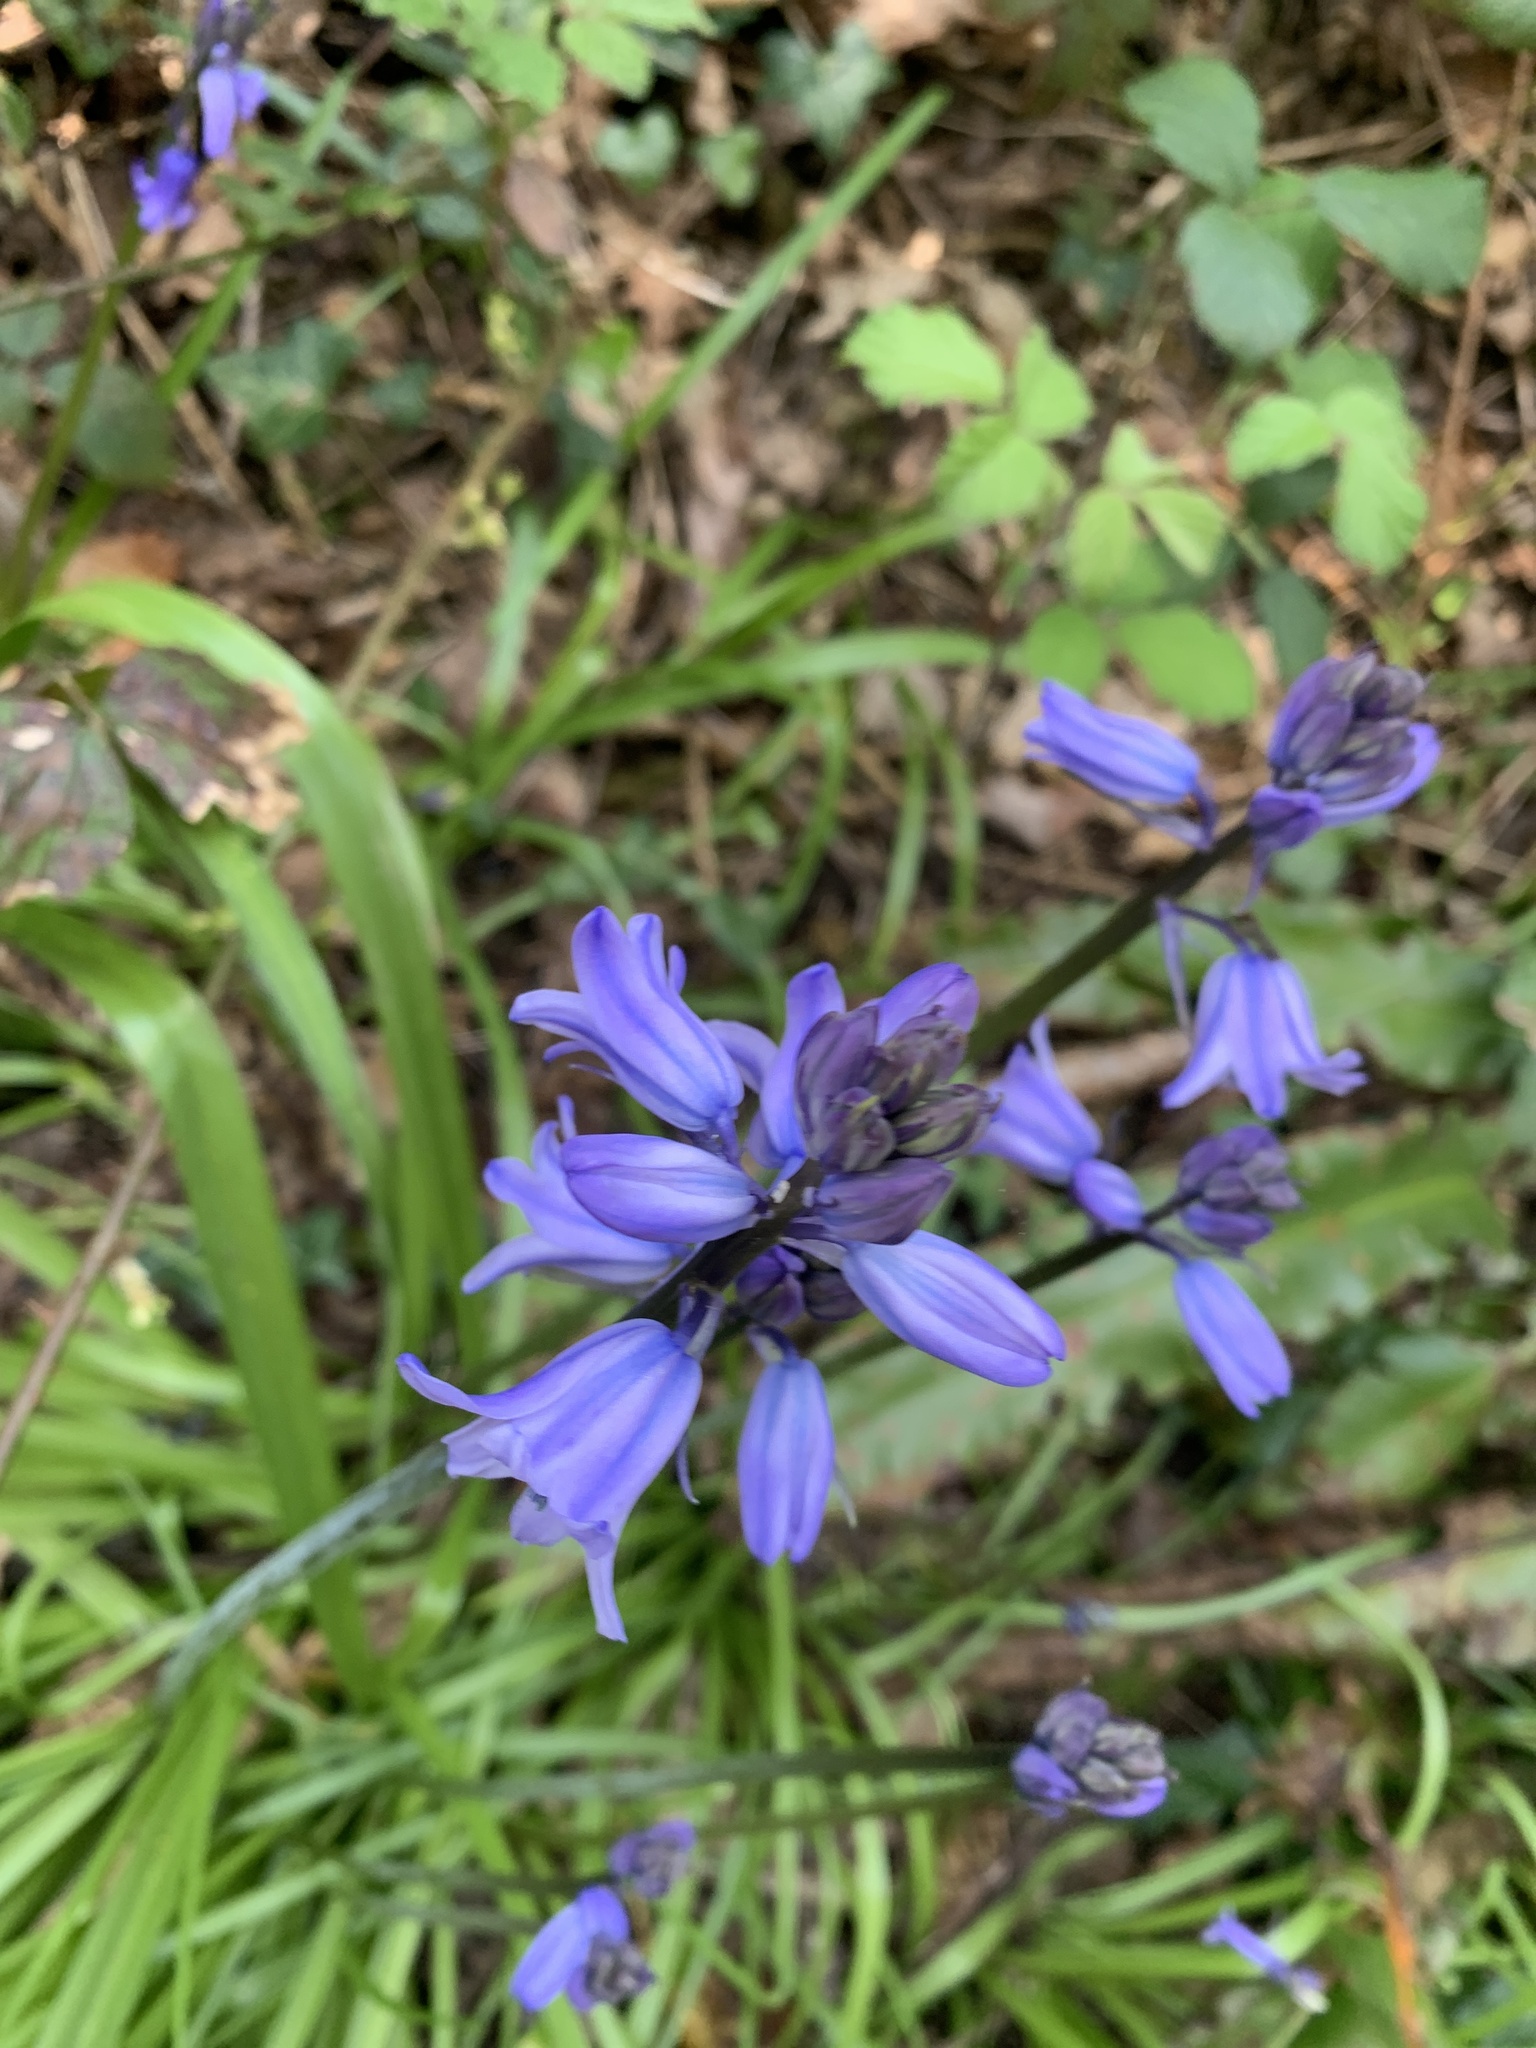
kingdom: Plantae
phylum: Tracheophyta
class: Liliopsida
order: Asparagales
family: Asparagaceae
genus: Hyacinthoides
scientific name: Hyacinthoides hispanica
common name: Spanish bluebell
